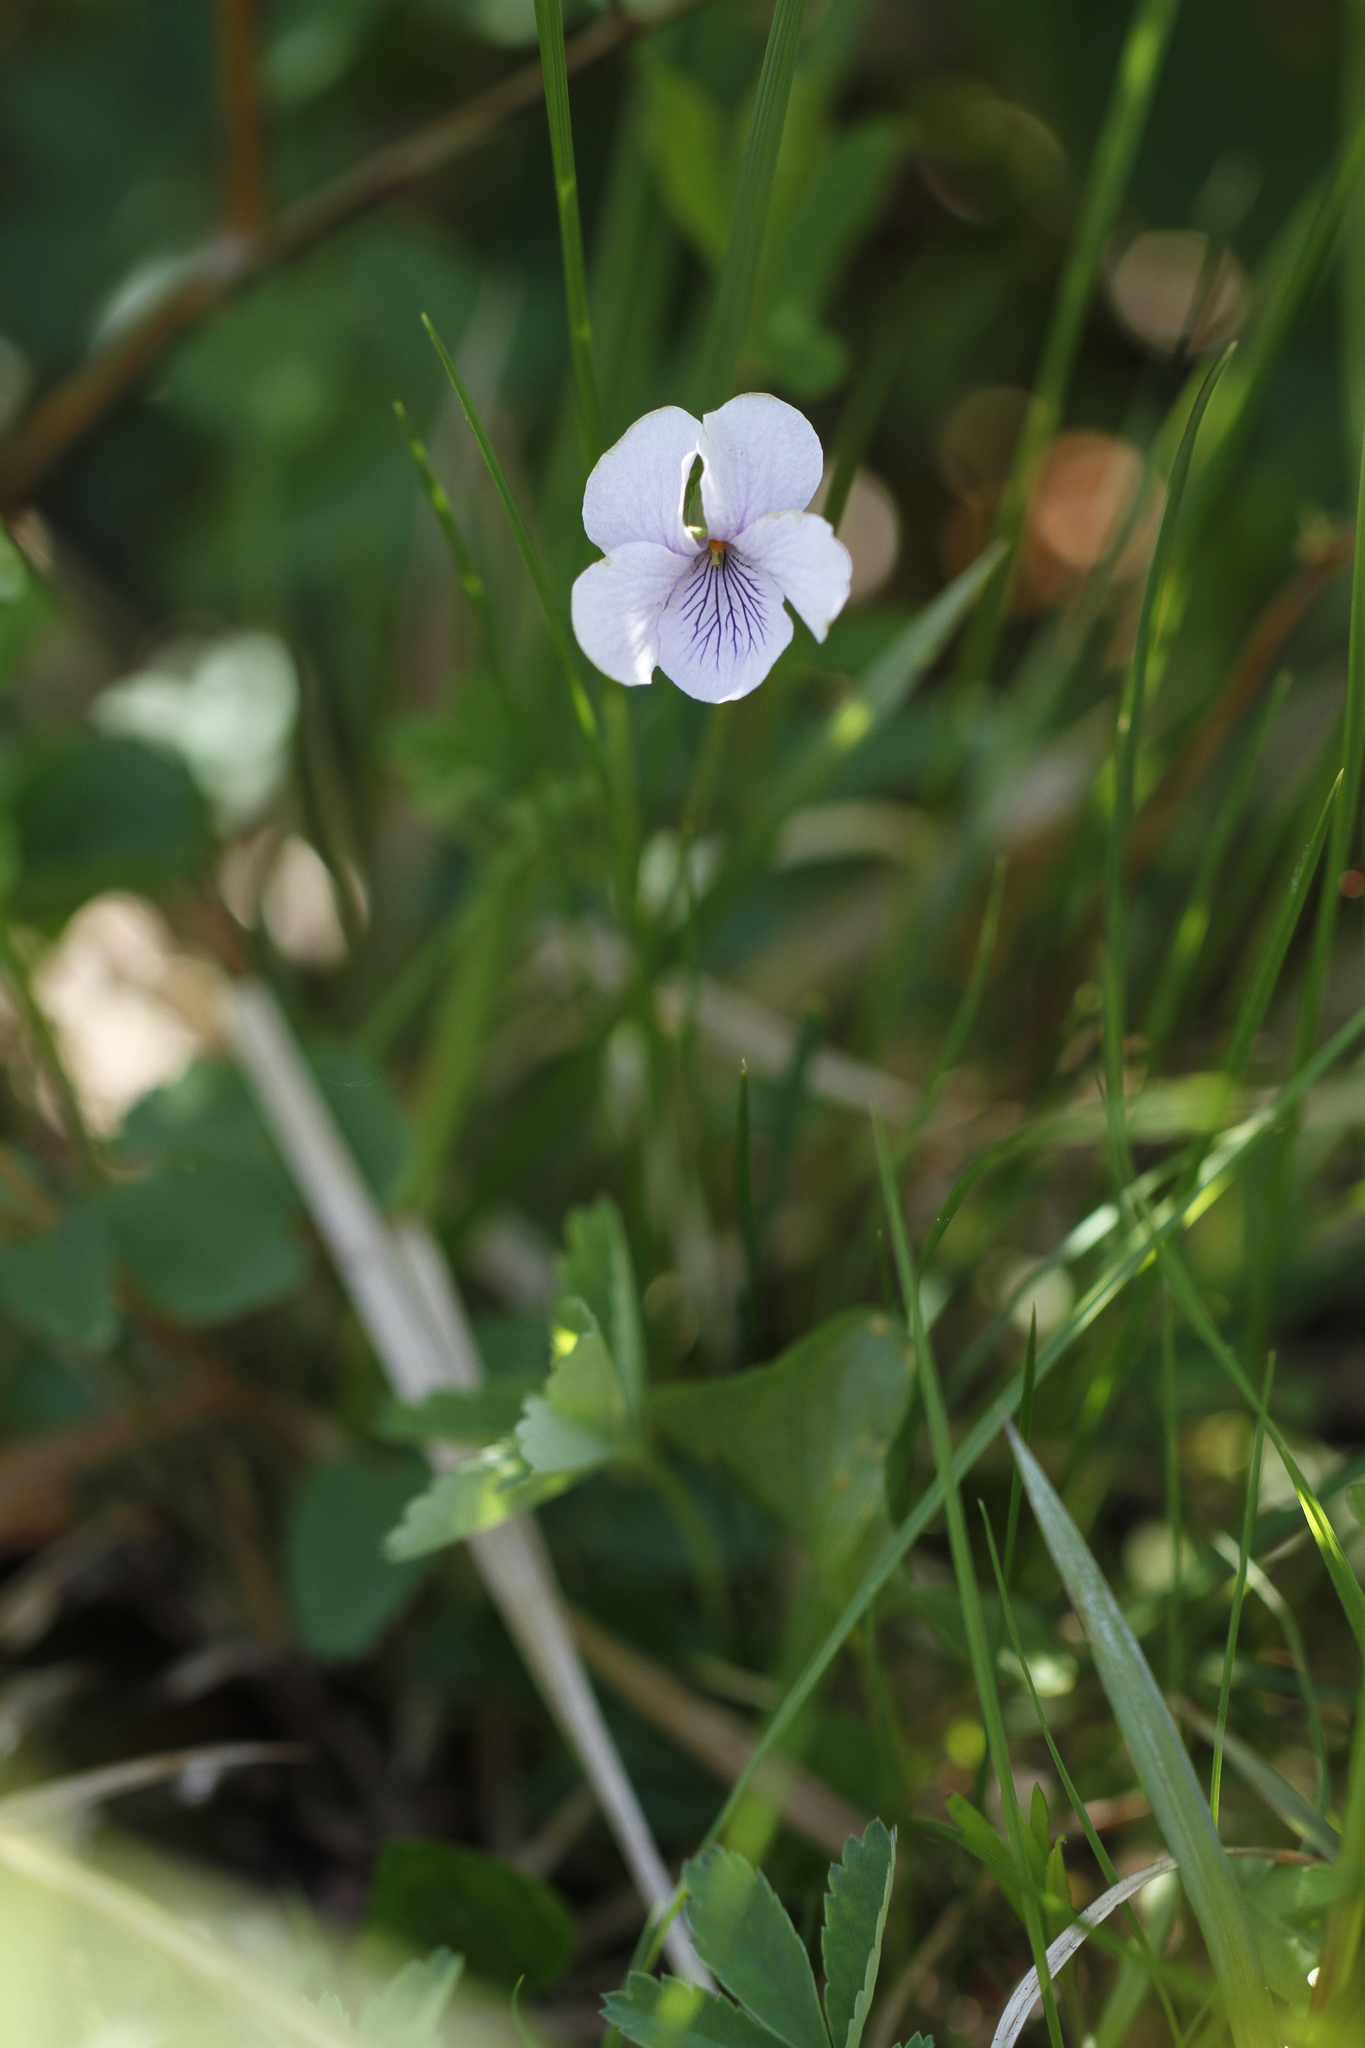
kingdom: Plantae
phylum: Tracheophyta
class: Magnoliopsida
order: Malpighiales
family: Violaceae
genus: Viola
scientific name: Viola palustris
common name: Marsh violet
